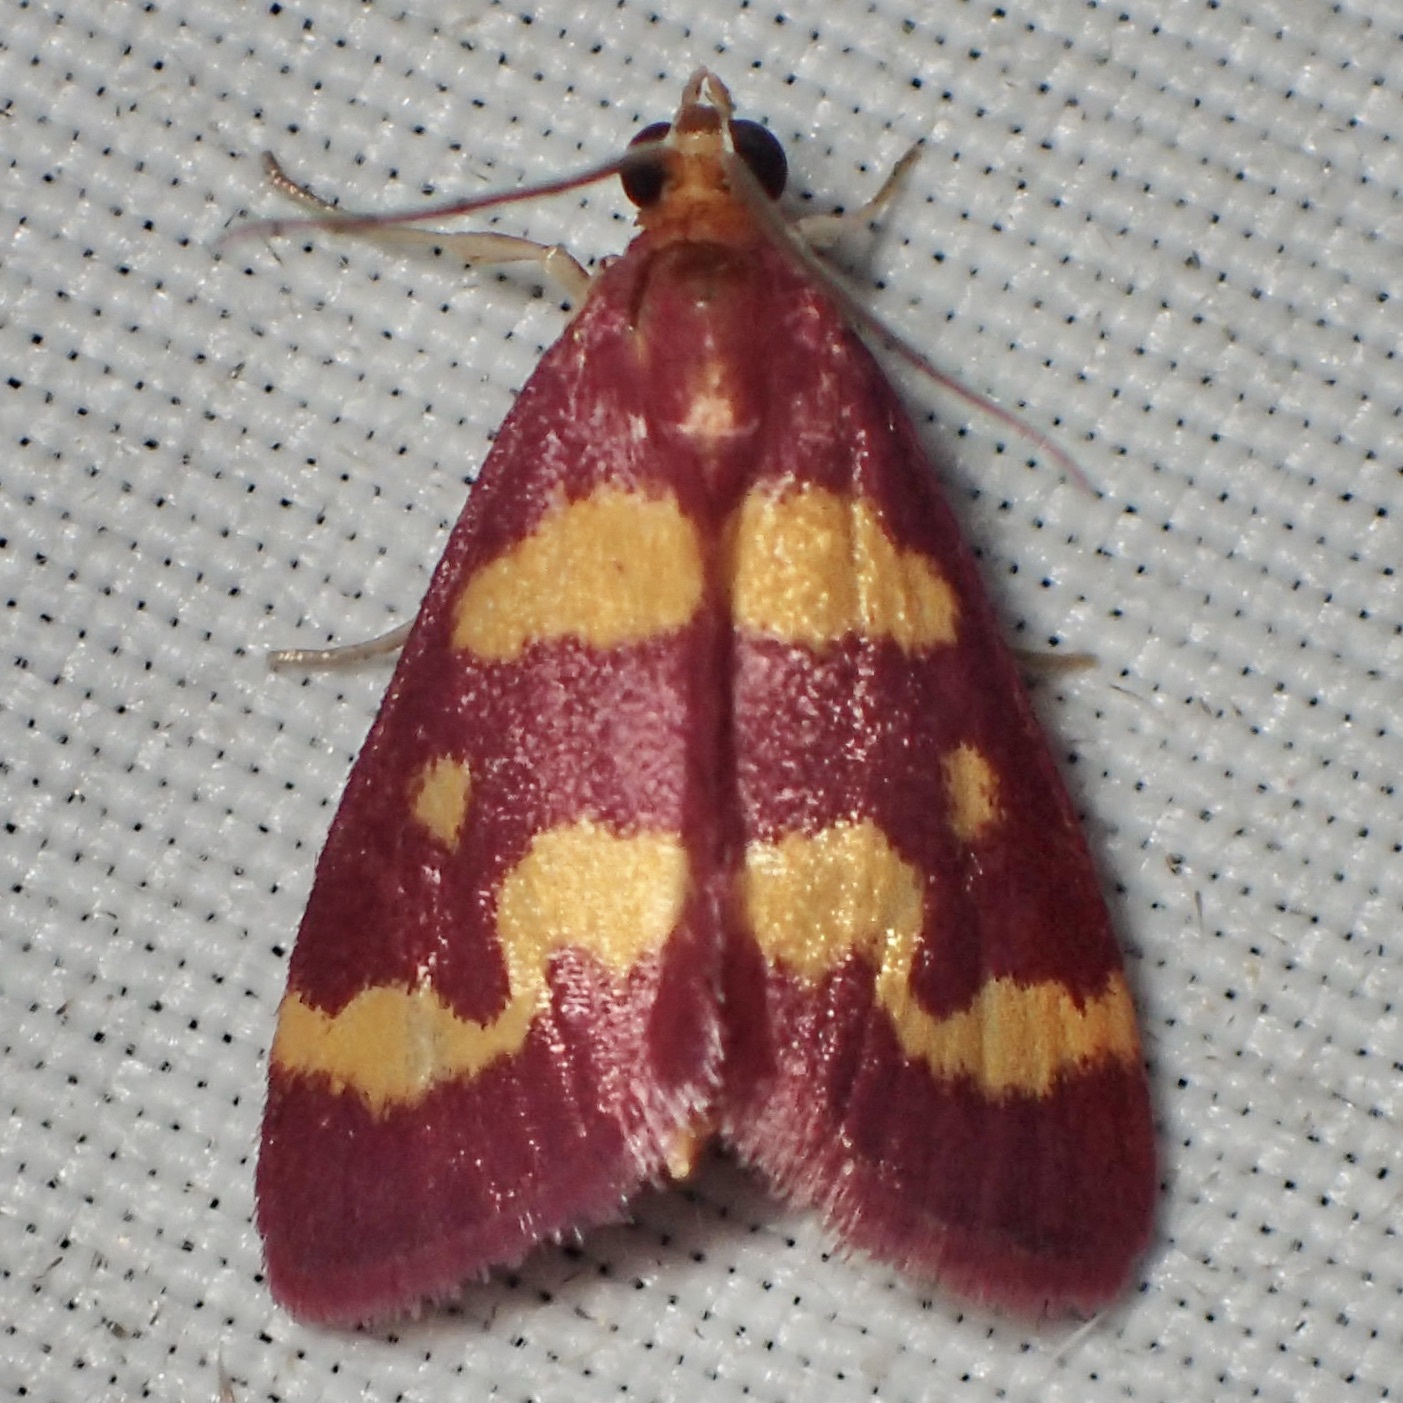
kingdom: Animalia
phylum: Arthropoda
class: Insecta
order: Lepidoptera
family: Crambidae
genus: Pyrausta
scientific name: Pyrausta tyralis
